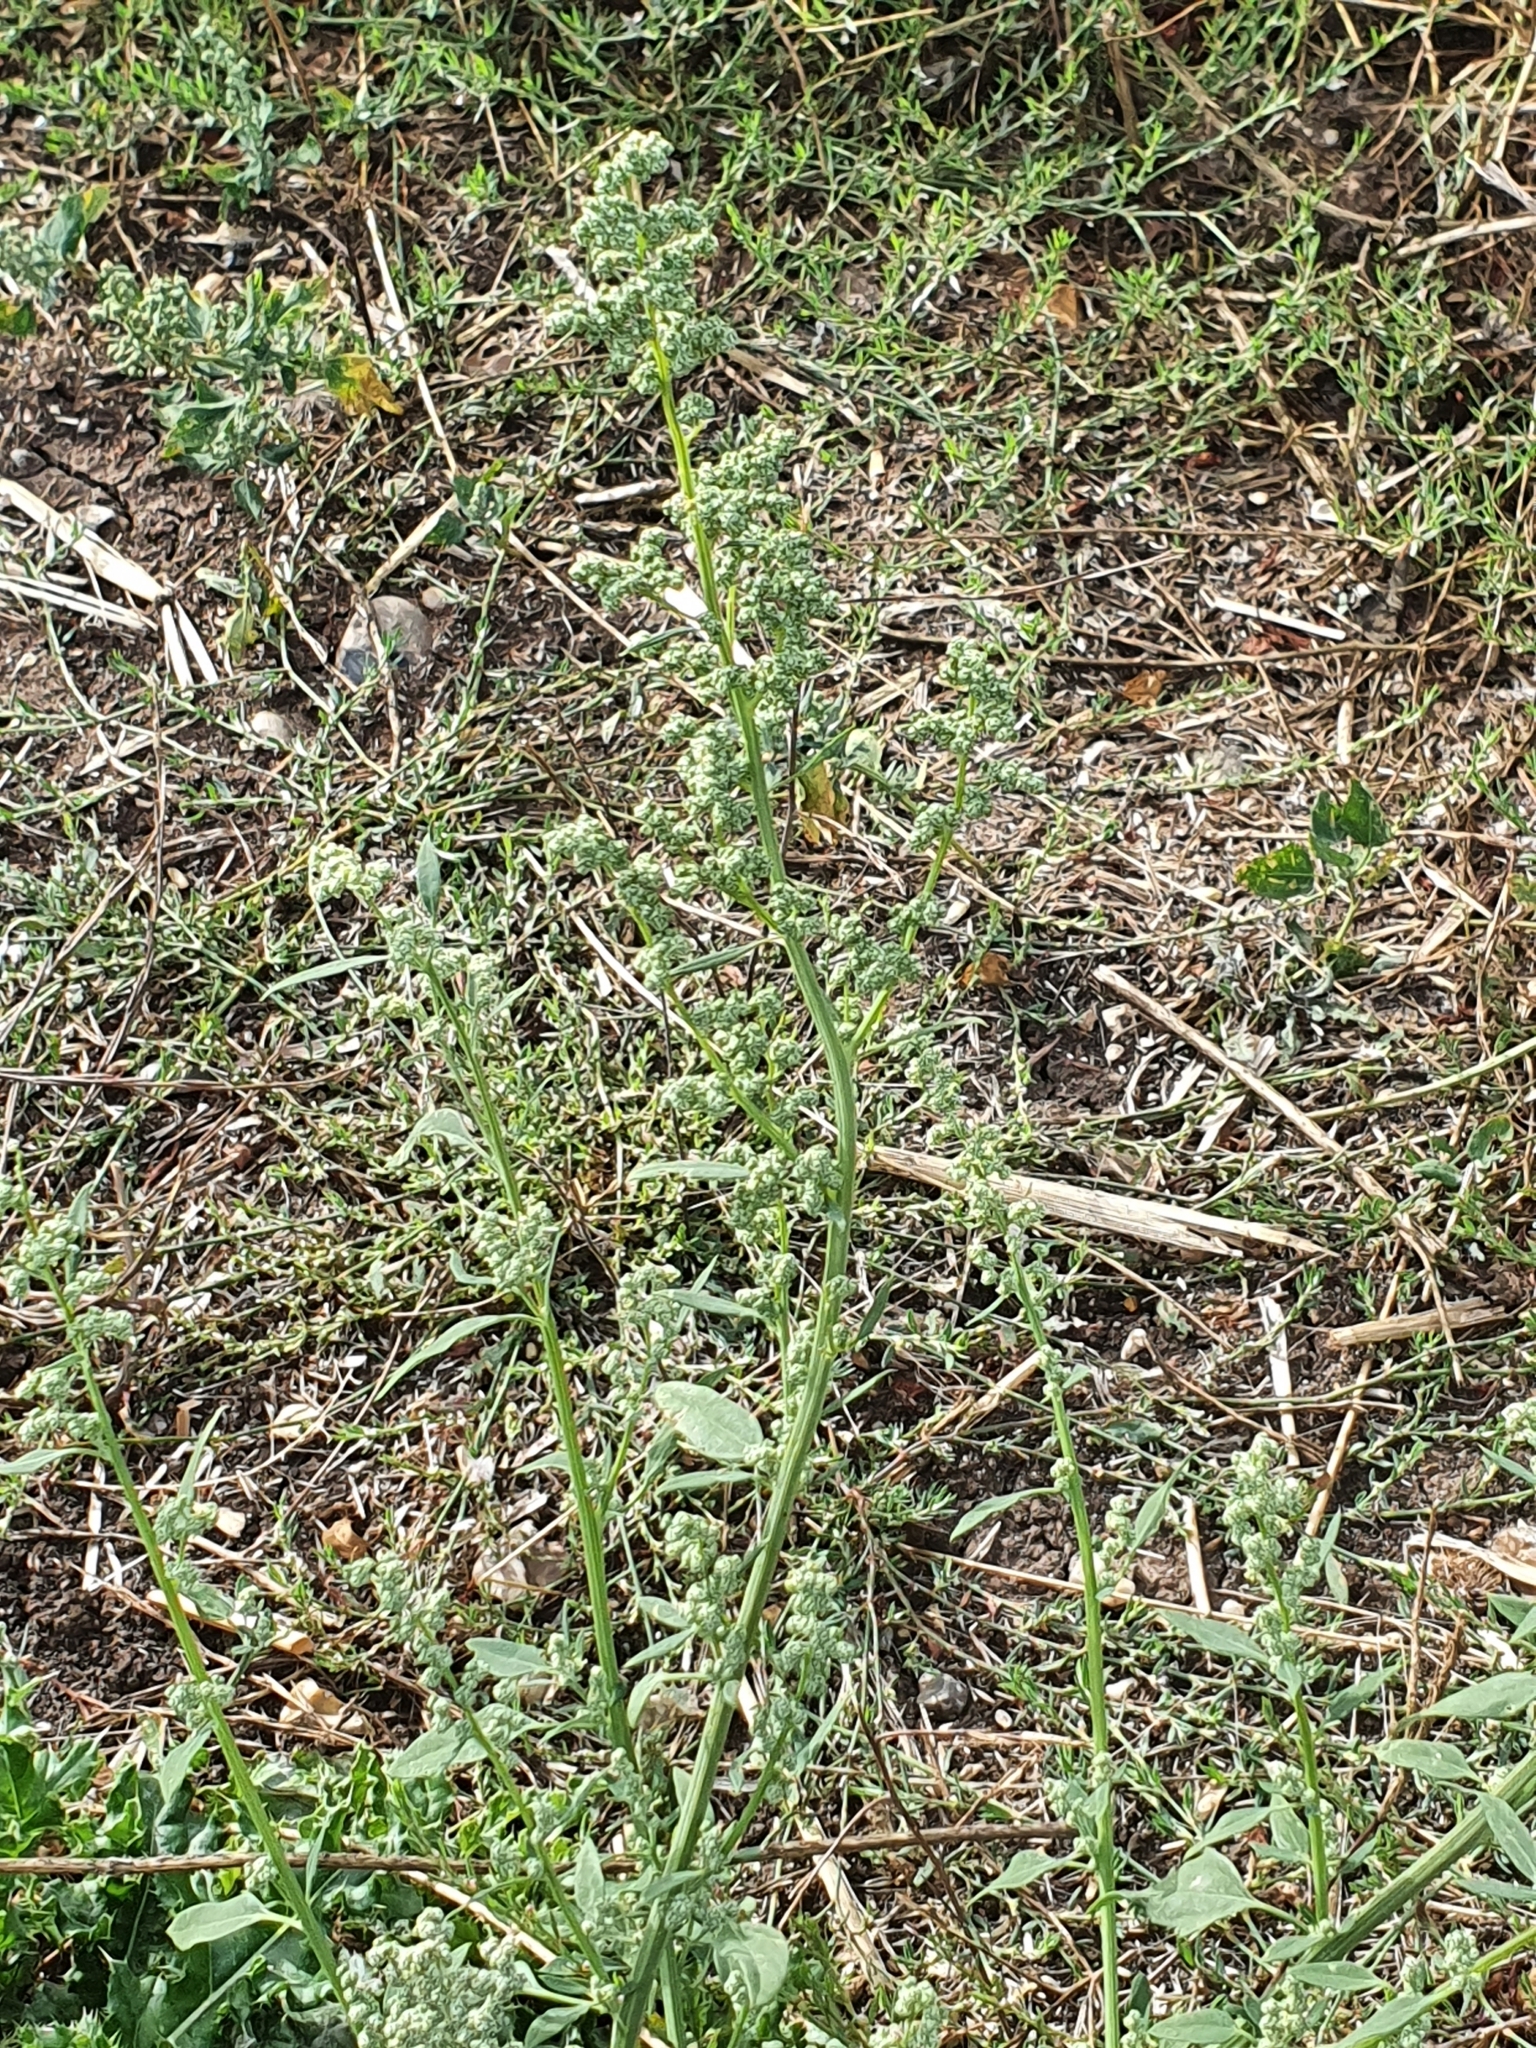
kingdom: Plantae
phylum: Tracheophyta
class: Magnoliopsida
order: Caryophyllales
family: Amaranthaceae
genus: Chenopodium
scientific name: Chenopodium album
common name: Fat-hen
